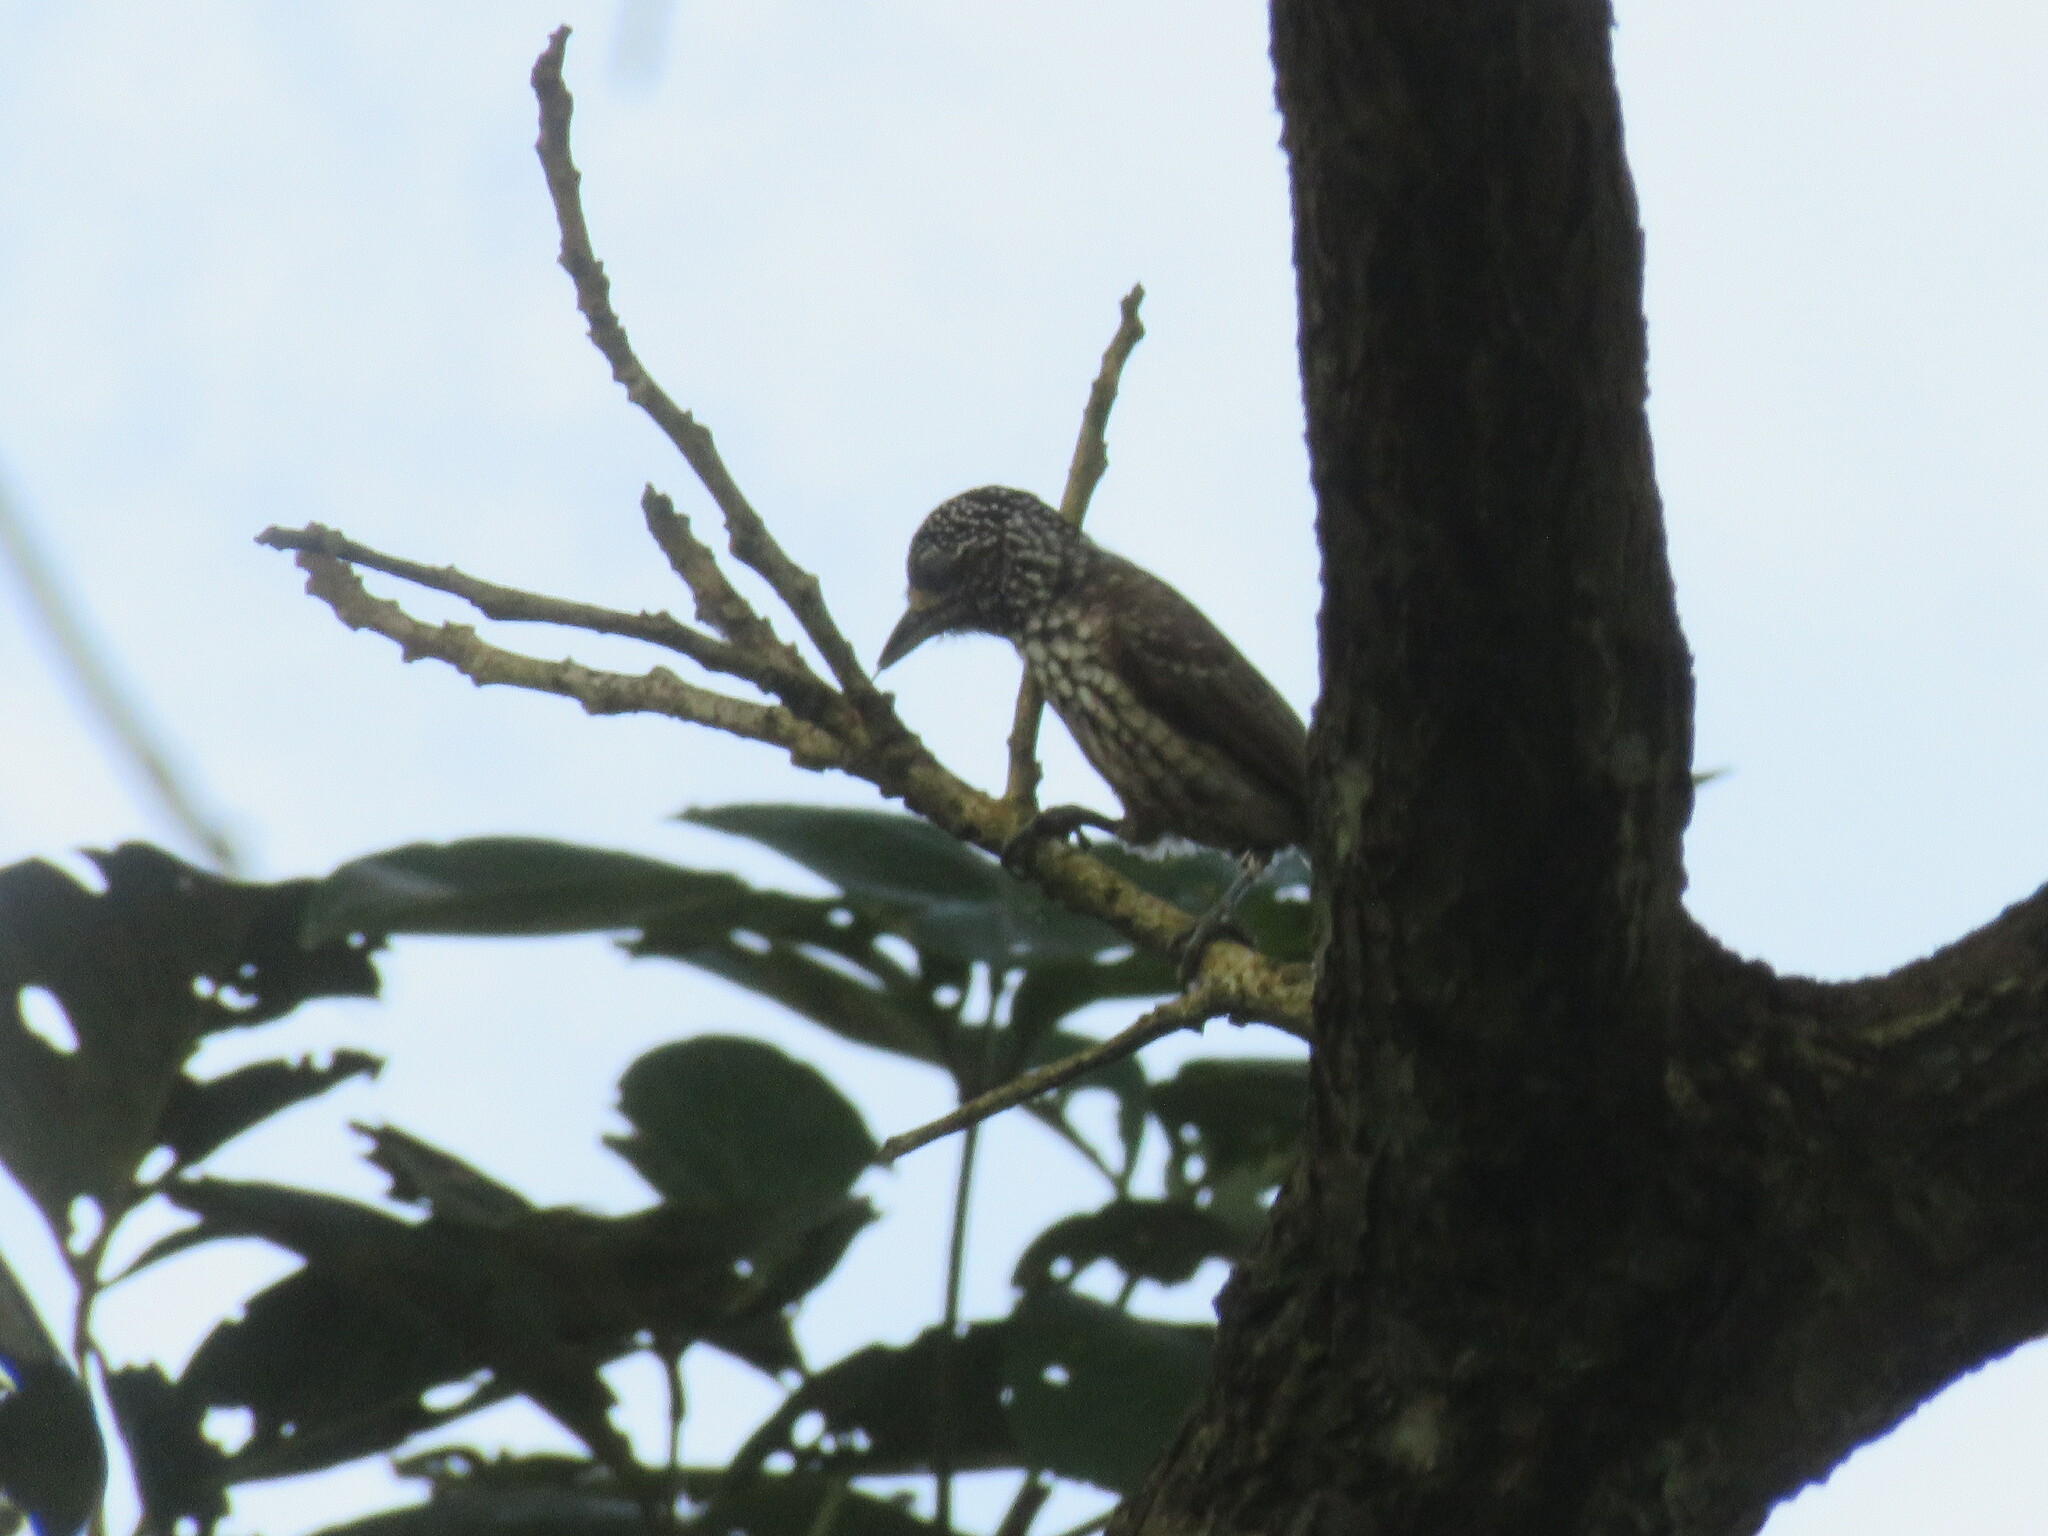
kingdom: Animalia
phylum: Chordata
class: Aves
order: Piciformes
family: Picidae
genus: Picumnus
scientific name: Picumnus albosquamatus
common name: White-wedged piculet
